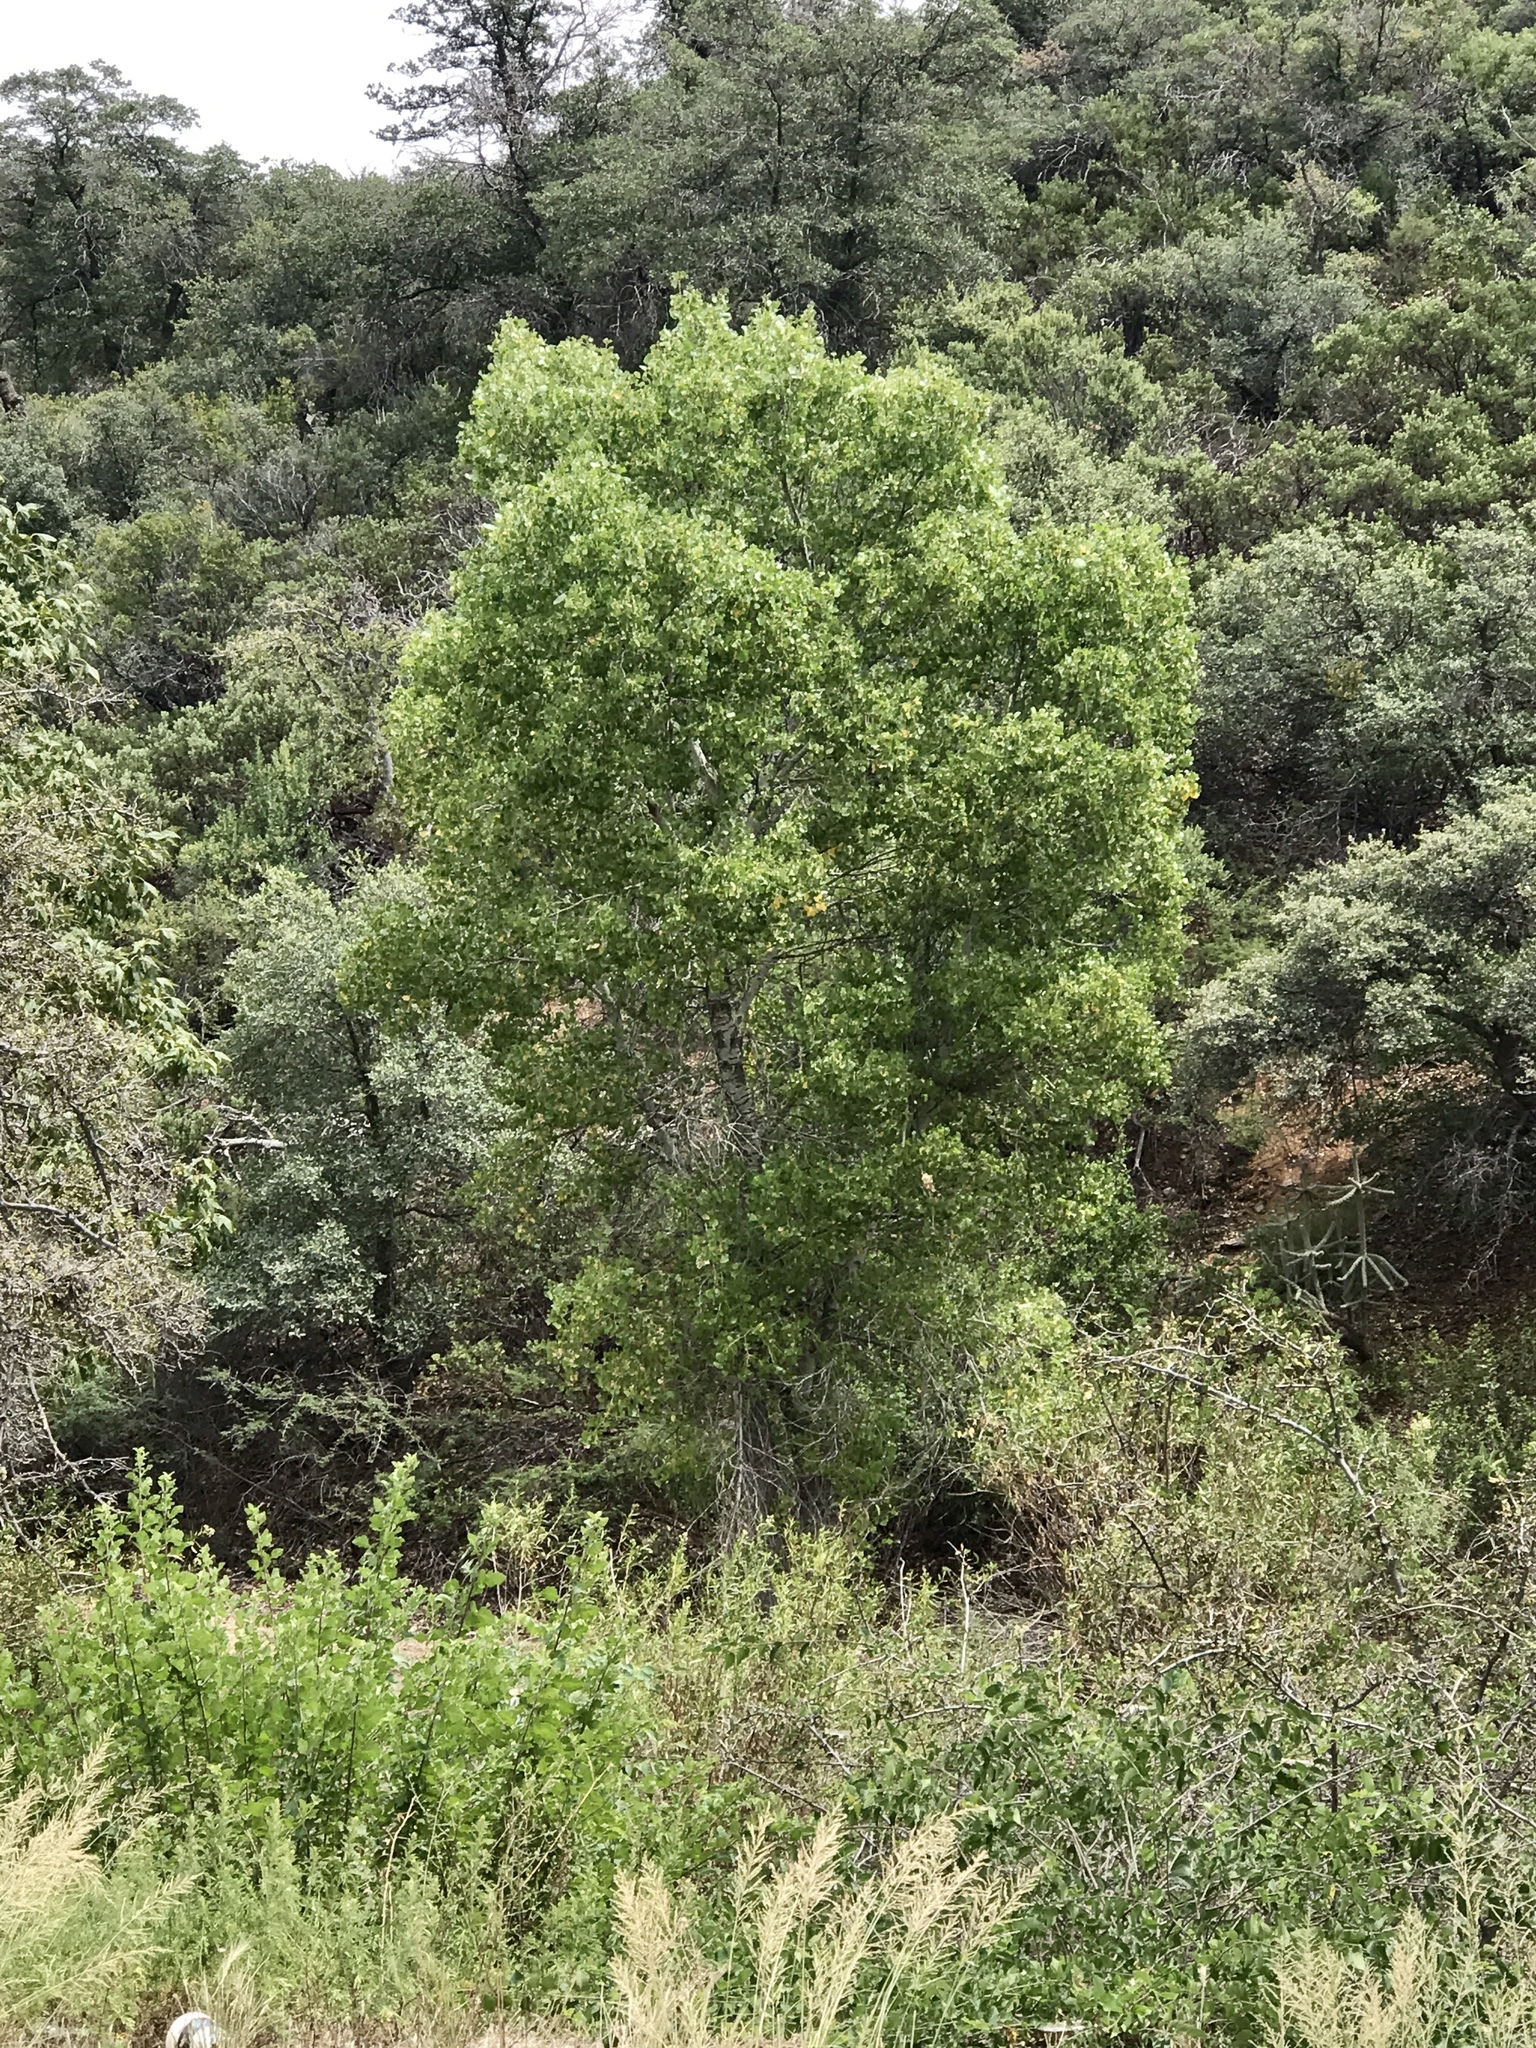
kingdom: Plantae
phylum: Tracheophyta
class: Magnoliopsida
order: Malpighiales
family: Salicaceae
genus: Populus
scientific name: Populus fremontii
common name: Fremont's cottonwood
